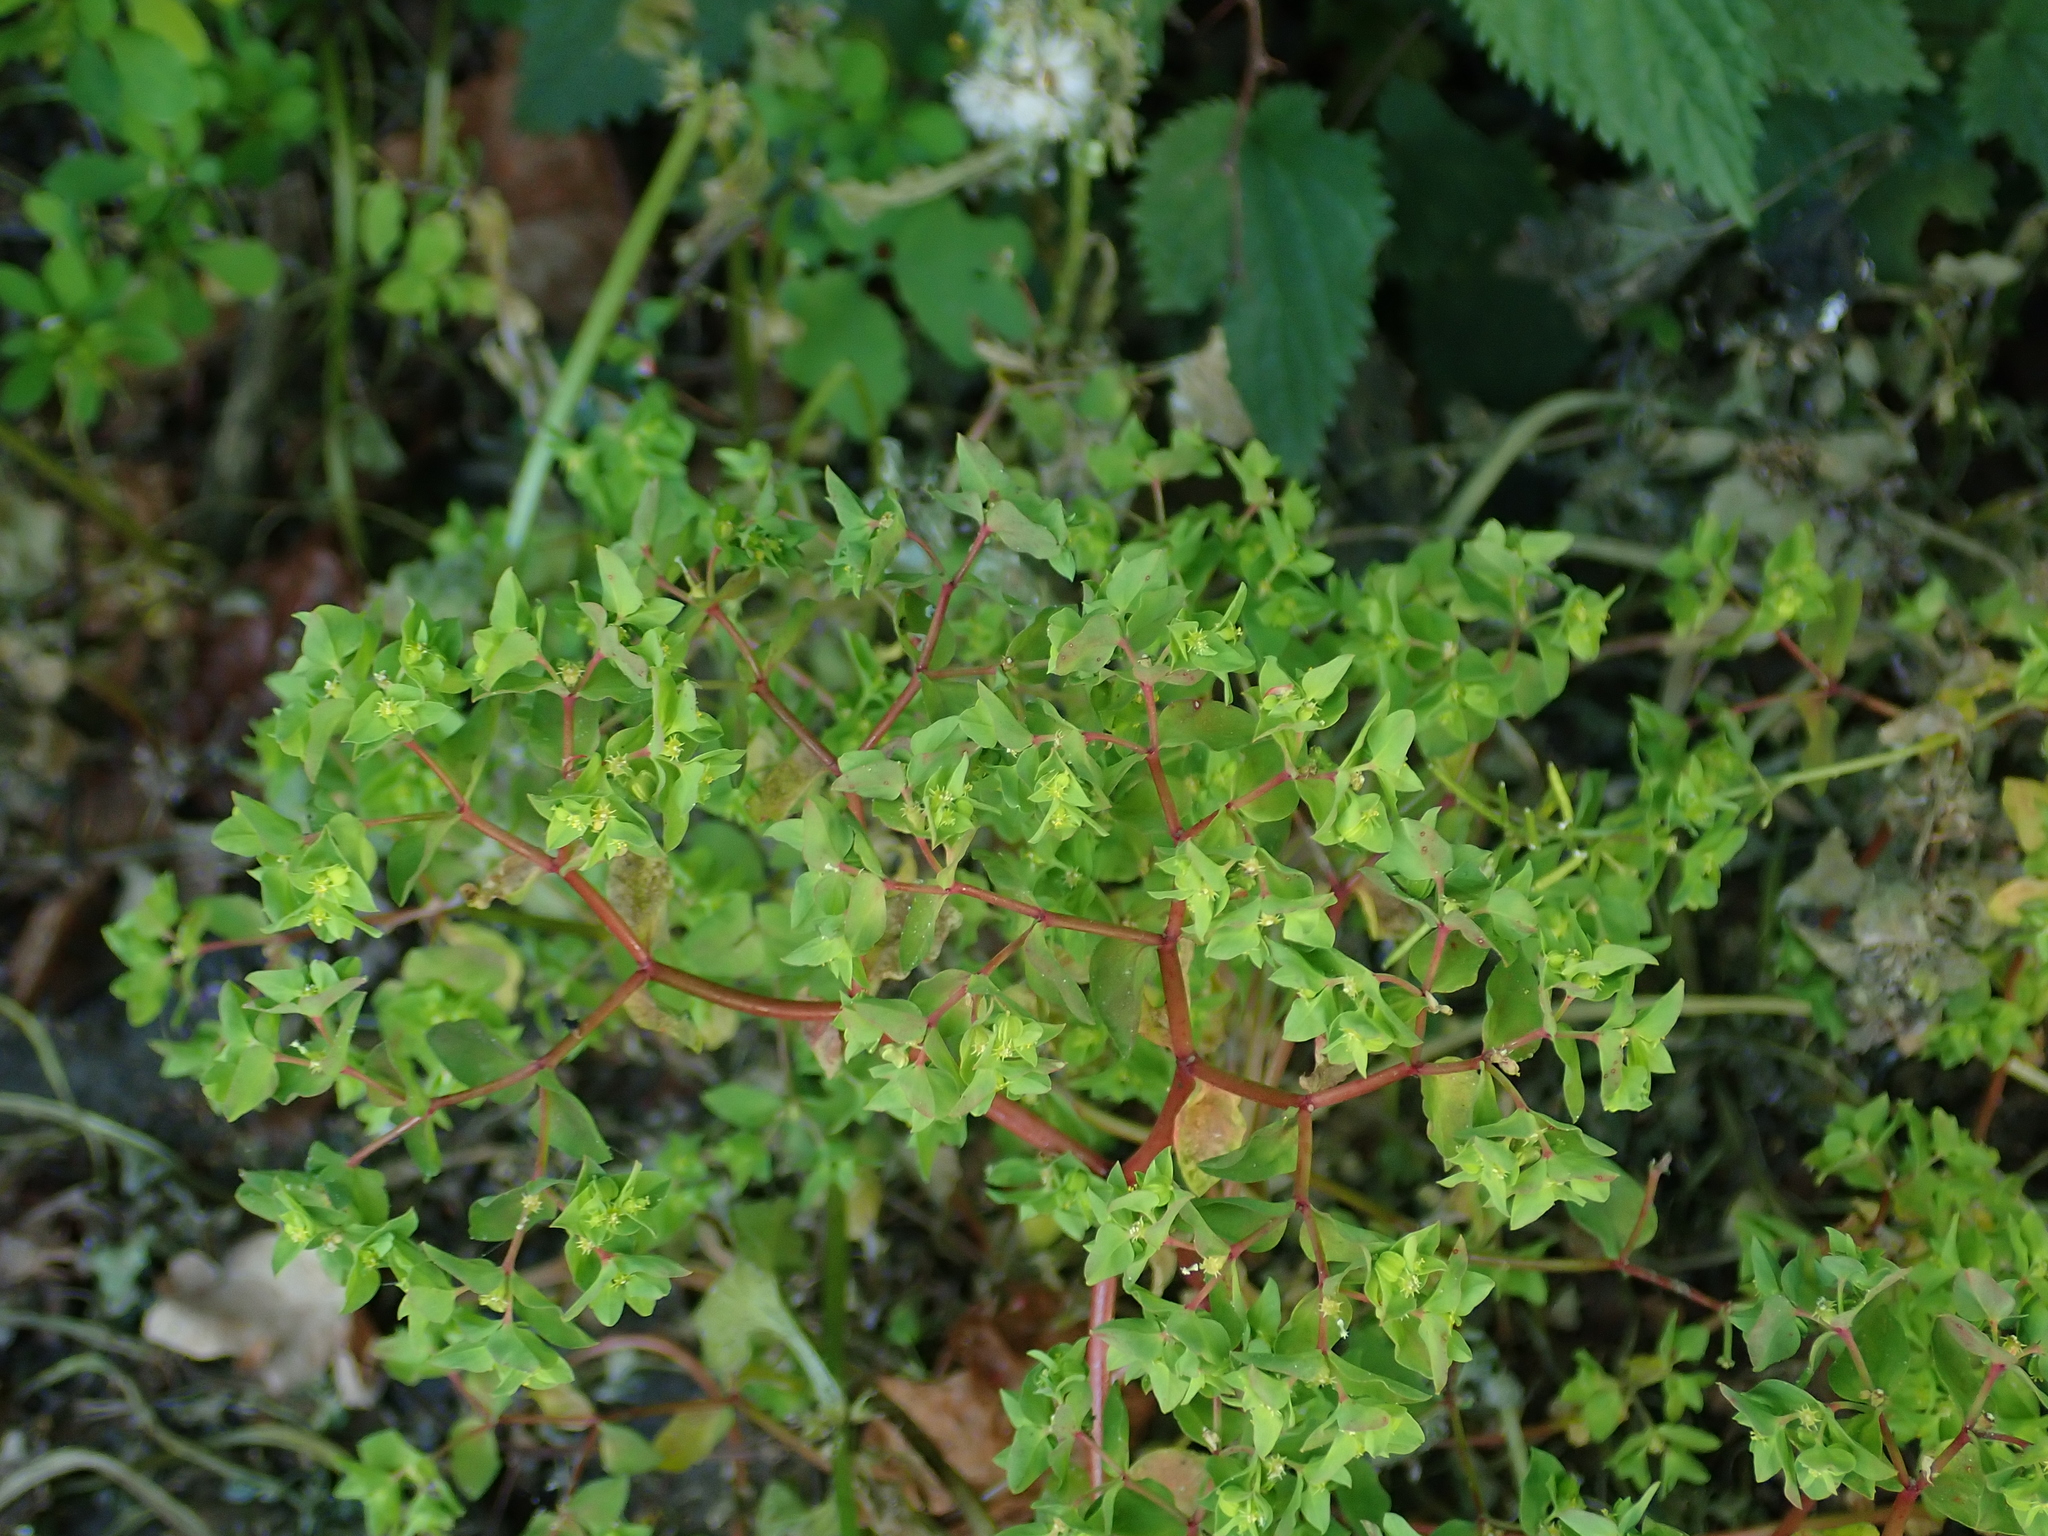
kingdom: Plantae
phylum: Tracheophyta
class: Magnoliopsida
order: Malpighiales
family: Euphorbiaceae
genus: Euphorbia
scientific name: Euphorbia peplus
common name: Petty spurge
